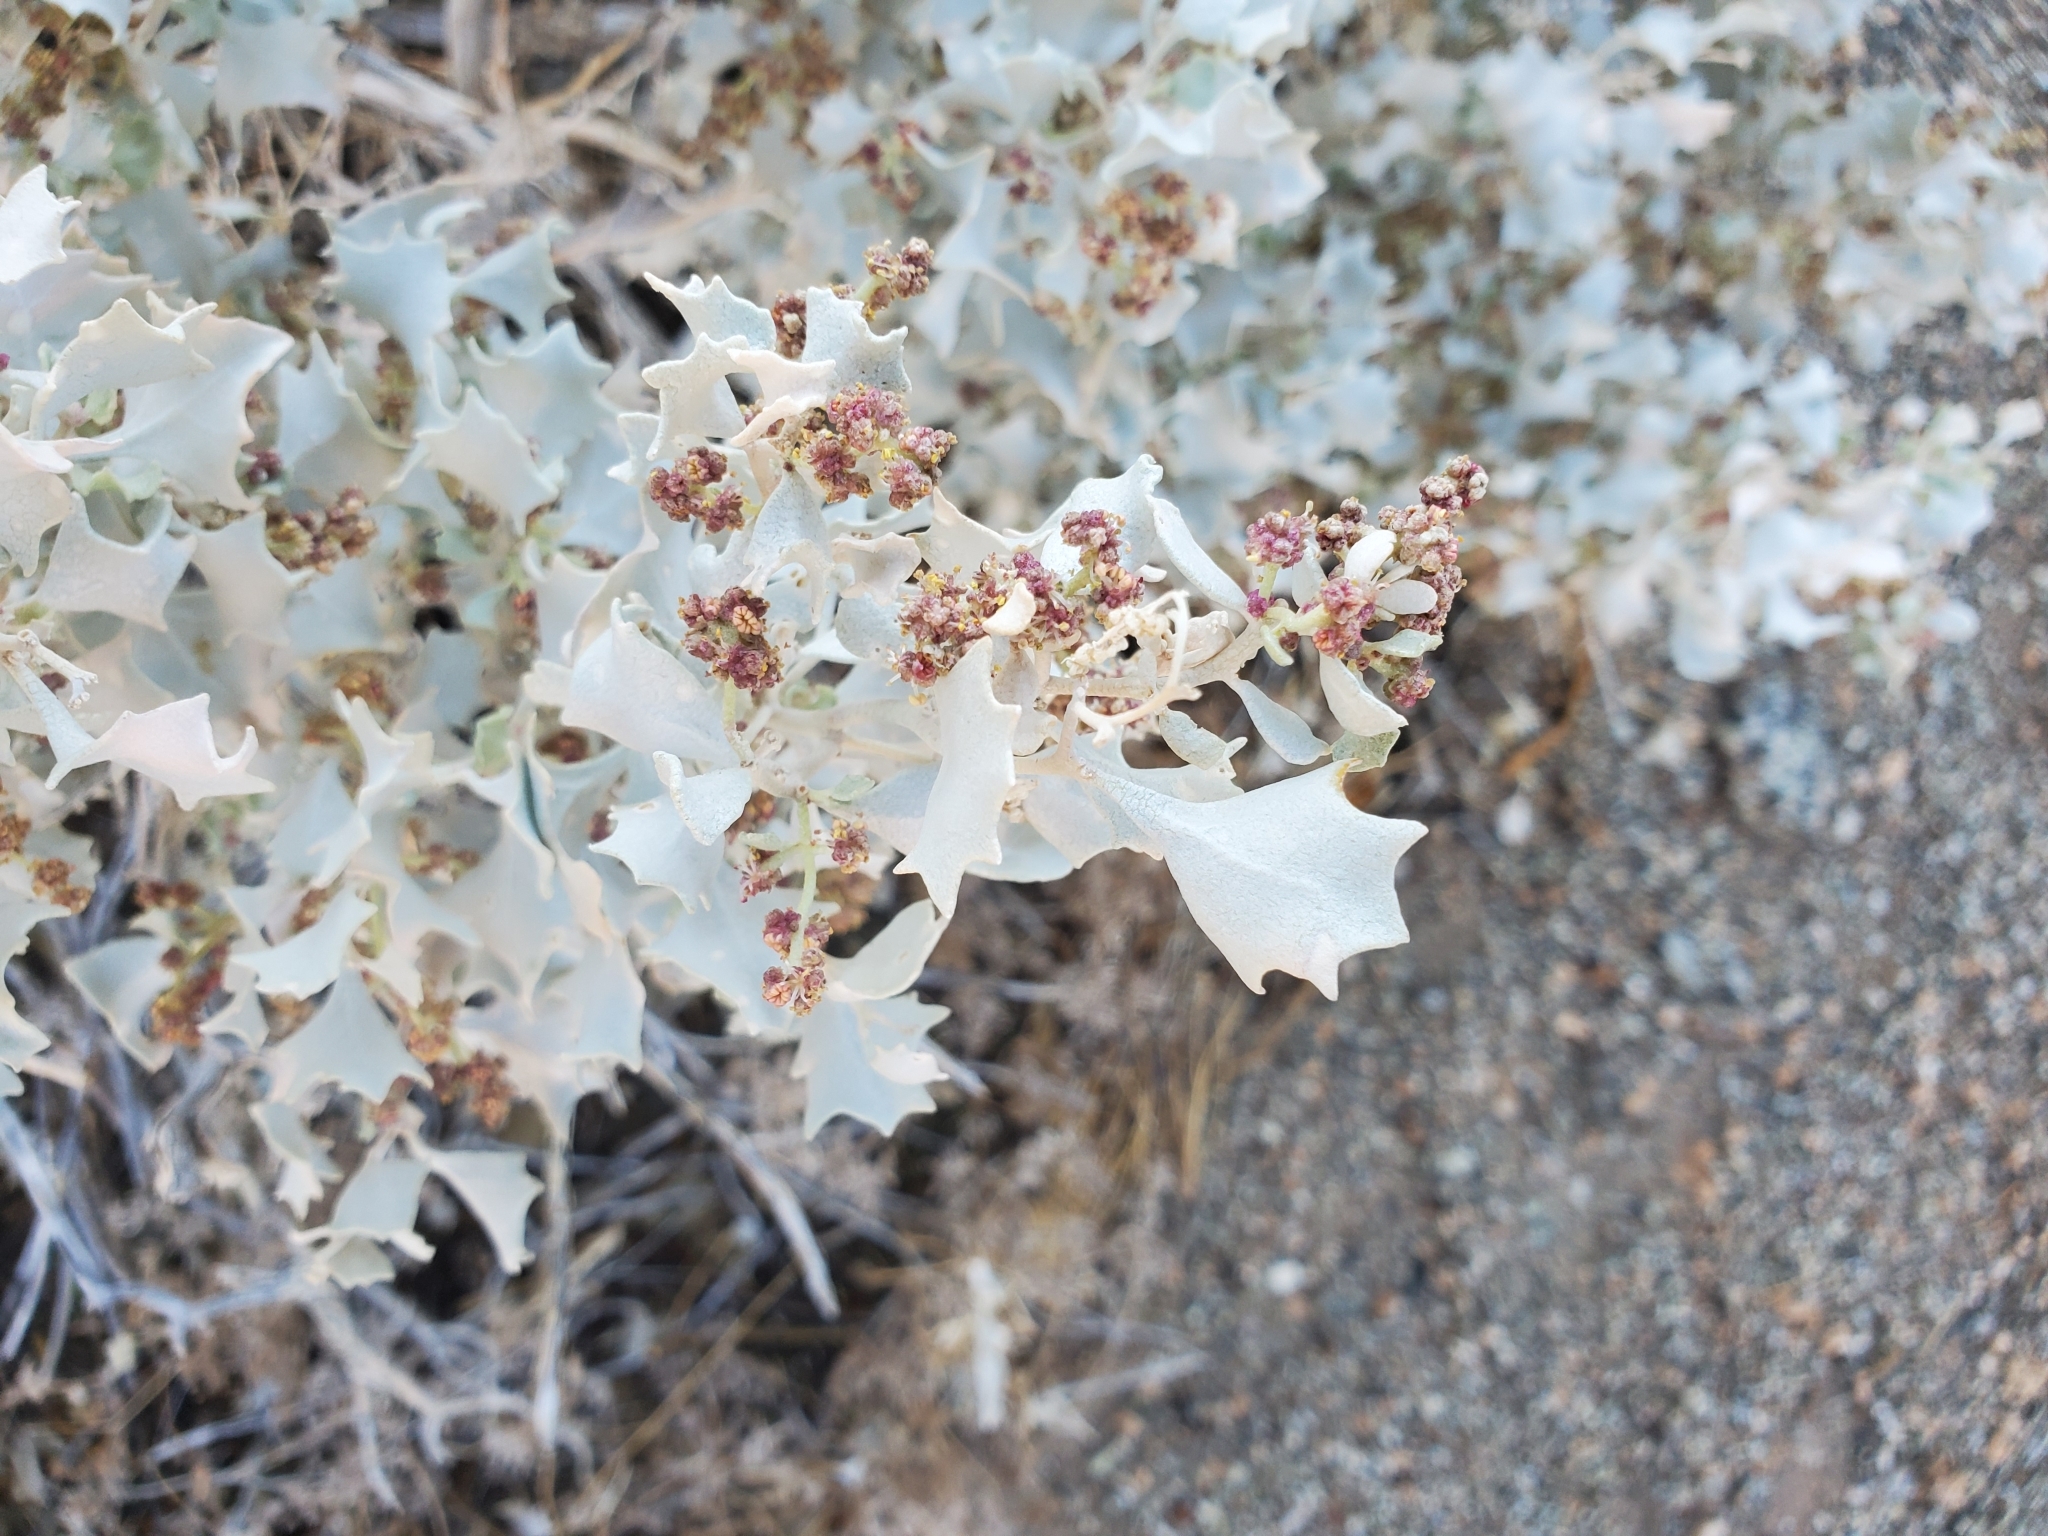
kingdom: Plantae
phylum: Tracheophyta
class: Magnoliopsida
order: Caryophyllales
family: Amaranthaceae
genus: Atriplex
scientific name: Atriplex hymenelytra
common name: Desert-holly
